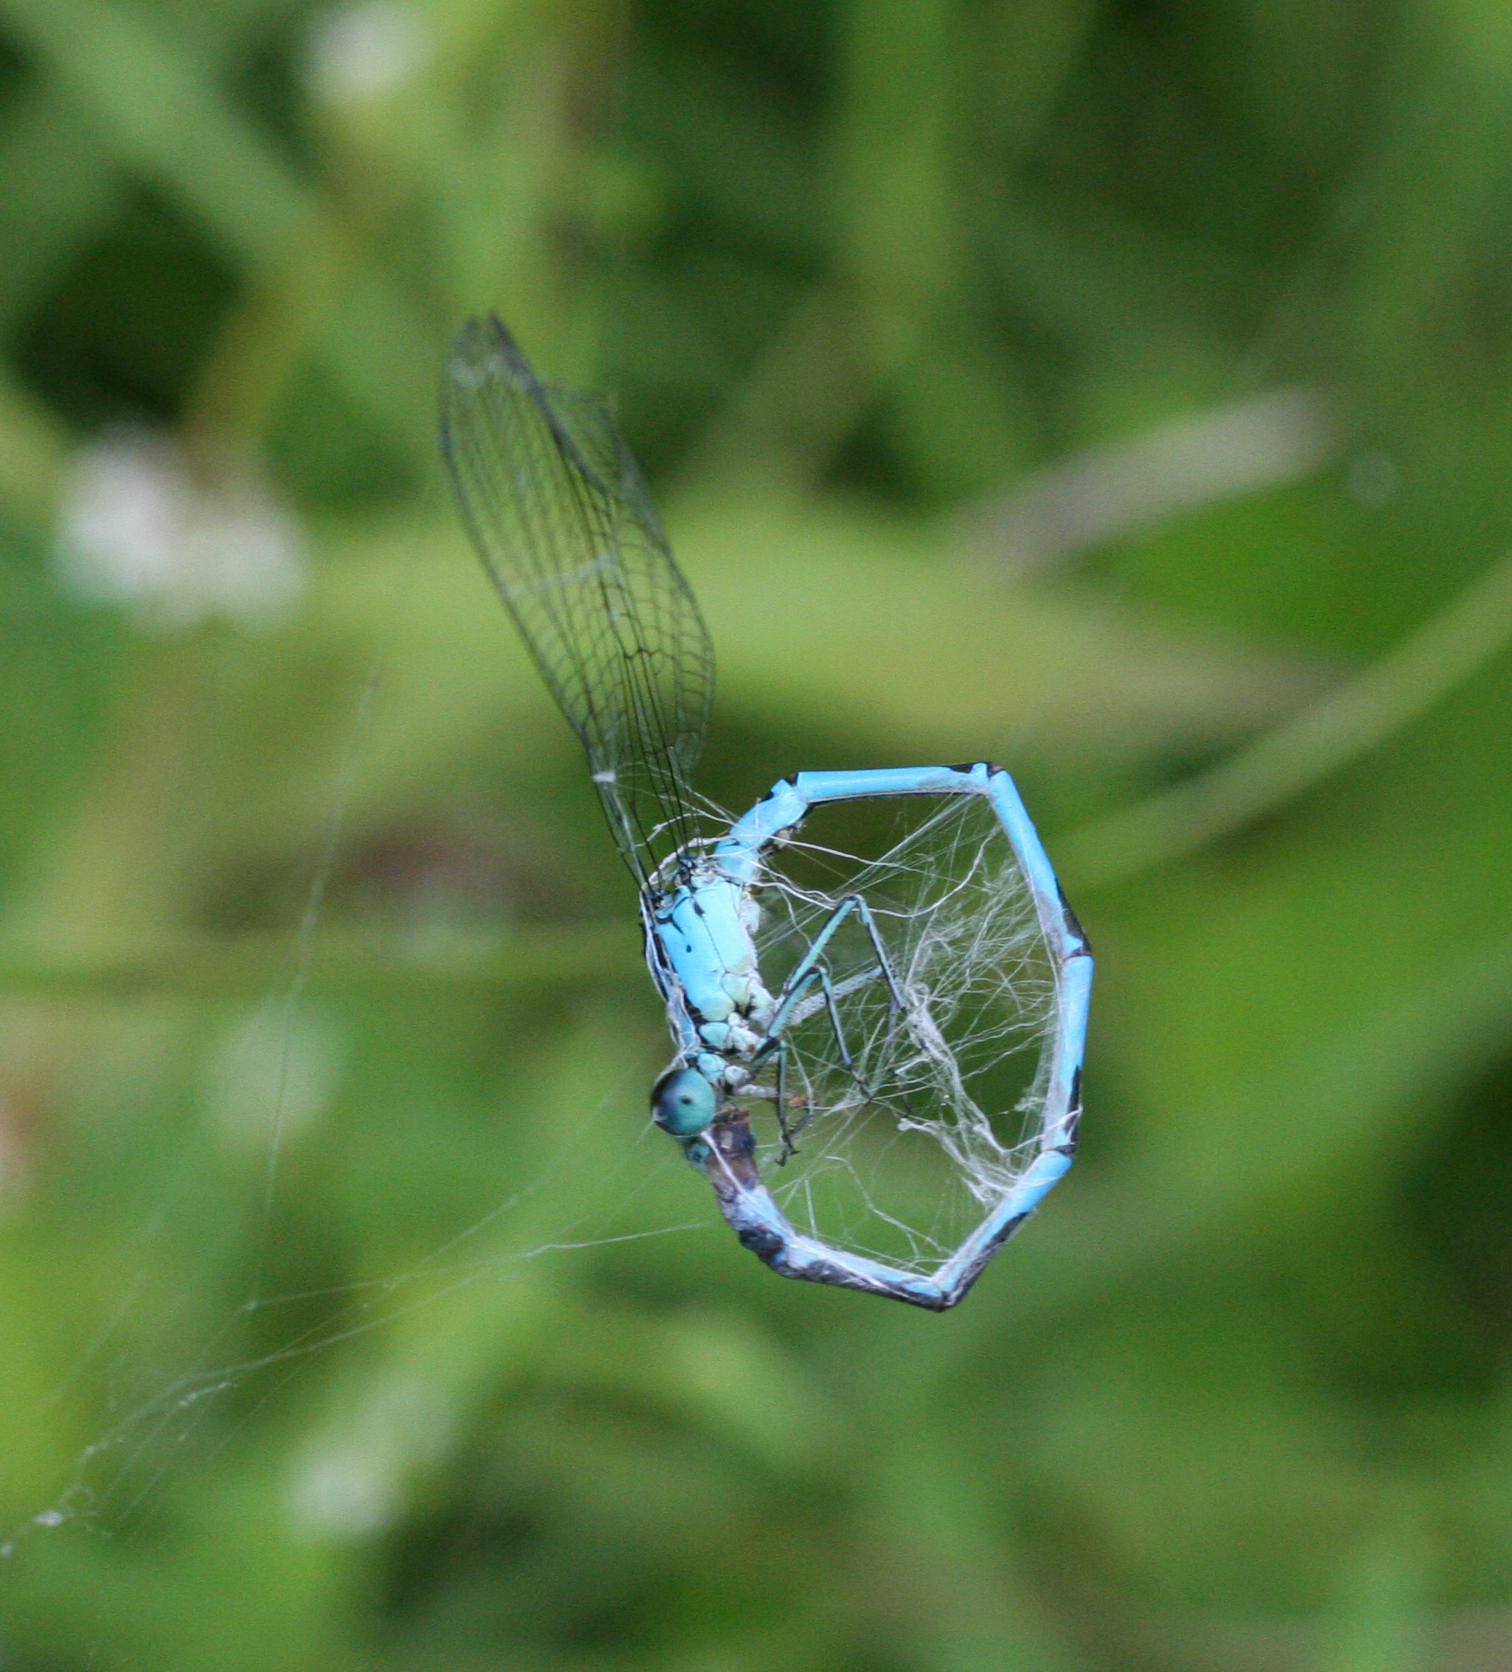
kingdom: Animalia
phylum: Arthropoda
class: Insecta
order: Odonata
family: Coenagrionidae
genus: Coenagrion
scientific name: Coenagrion lanceolatum
